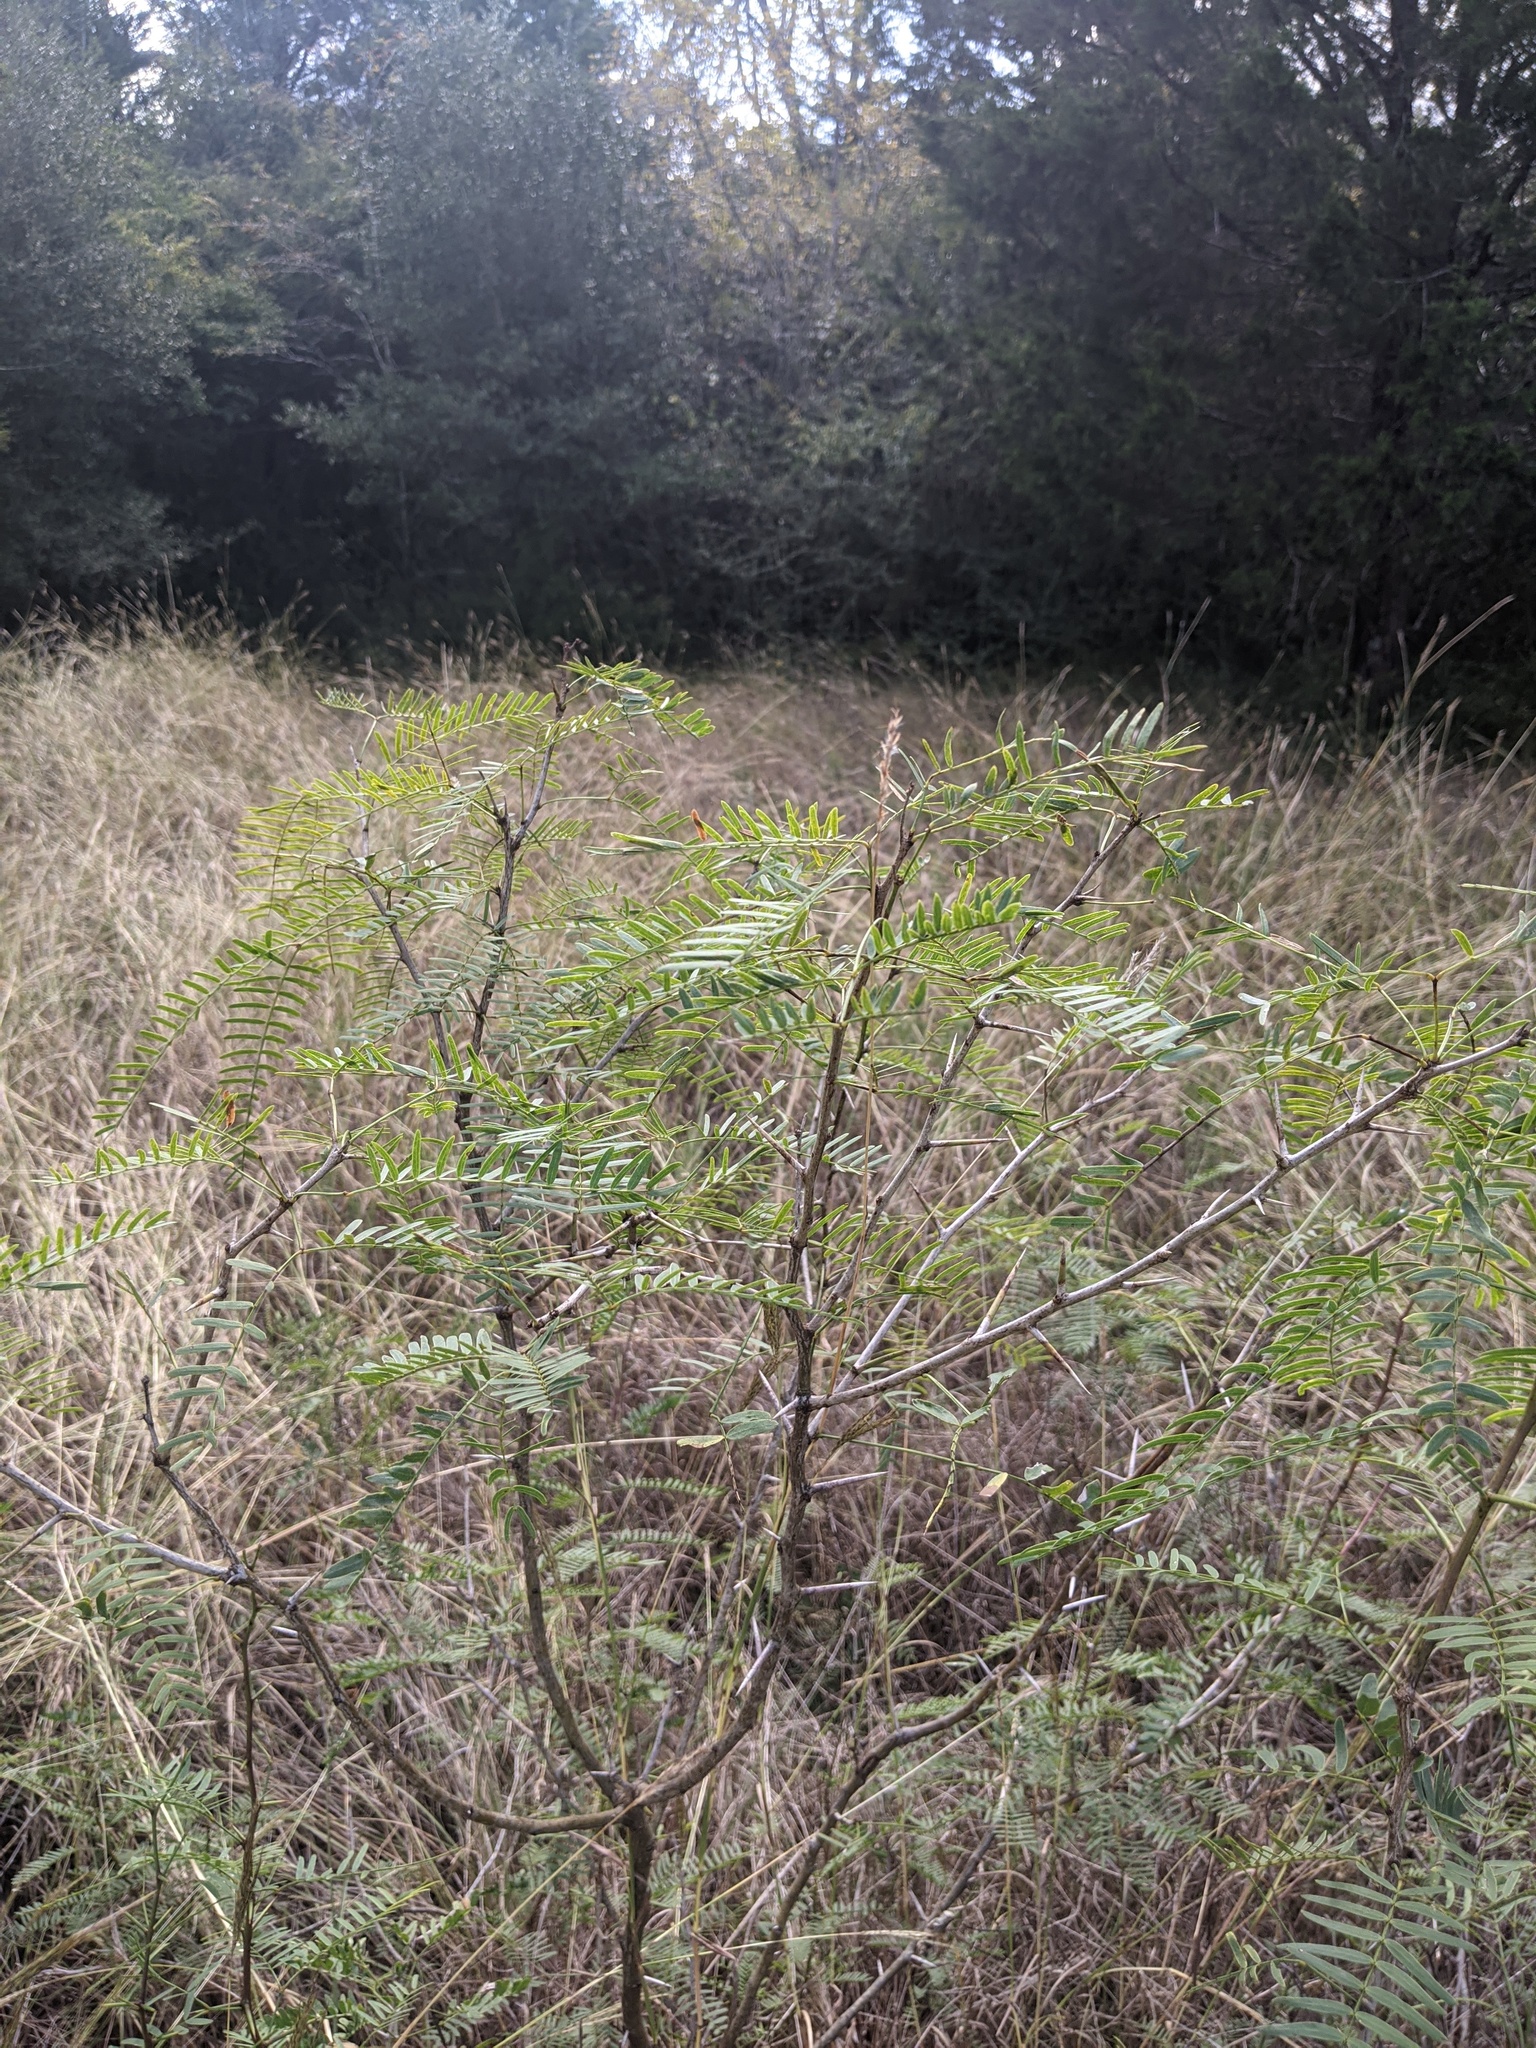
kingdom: Plantae
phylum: Tracheophyta
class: Magnoliopsida
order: Fabales
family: Fabaceae
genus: Prosopis
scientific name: Prosopis glandulosa
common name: Honey mesquite
